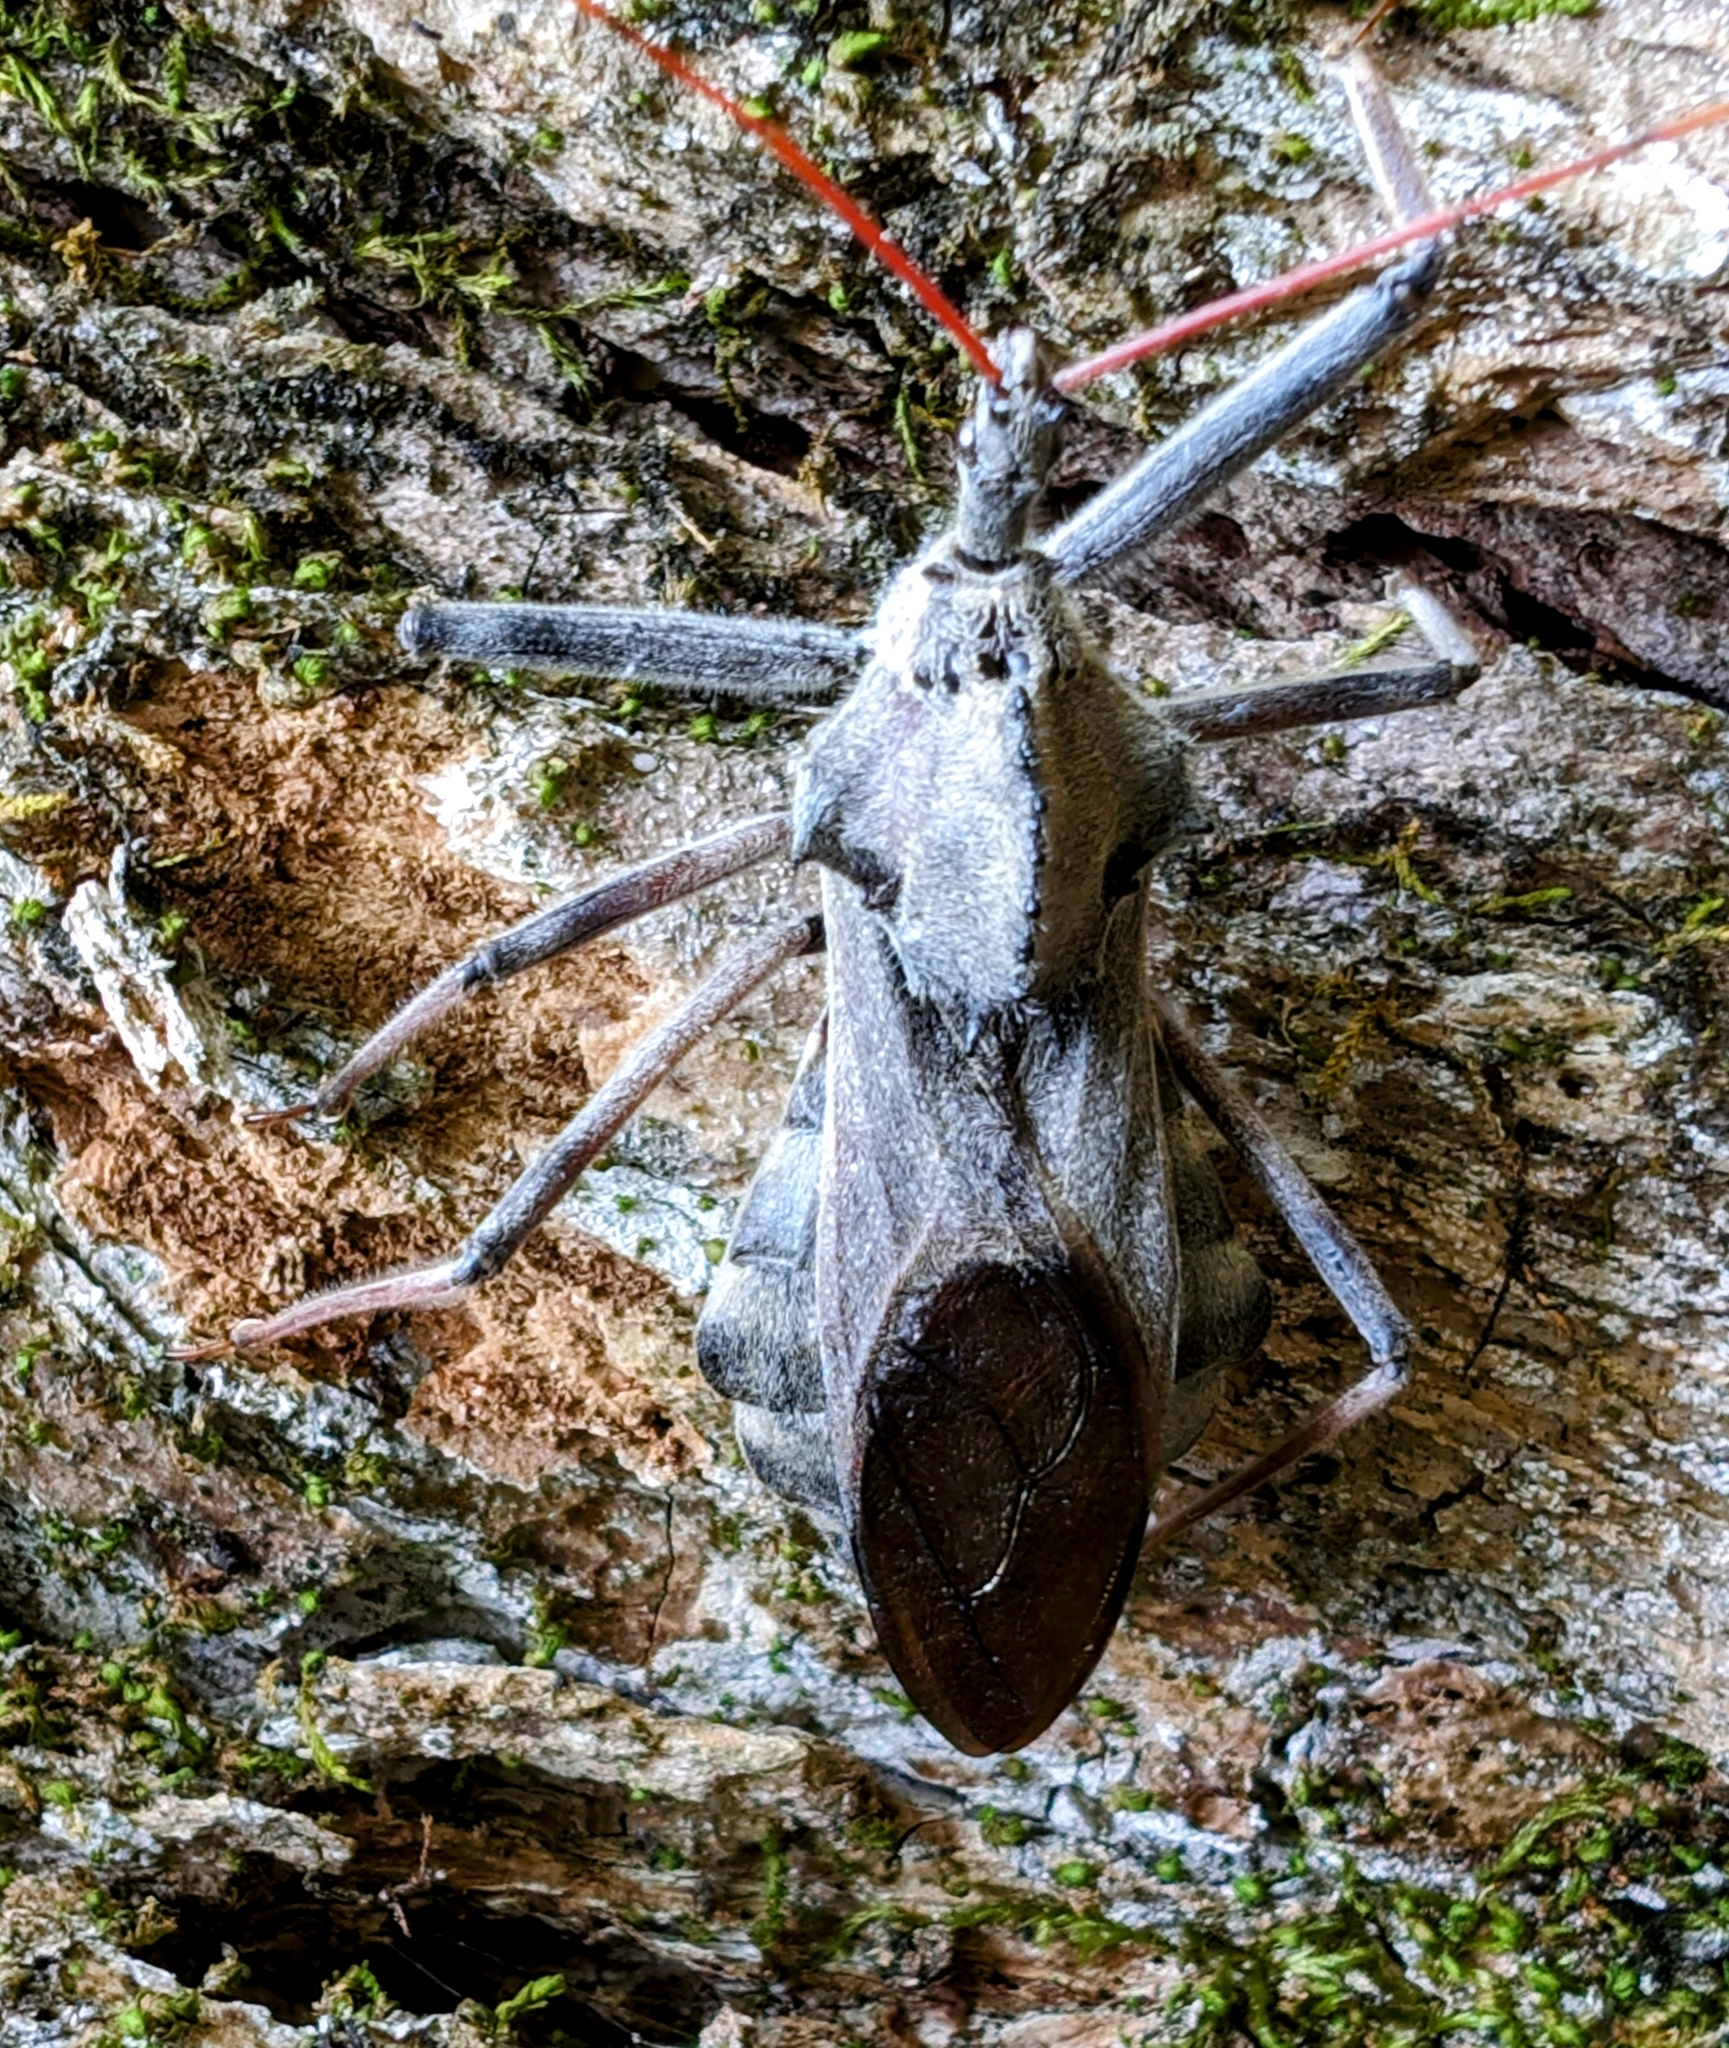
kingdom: Animalia
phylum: Arthropoda
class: Insecta
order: Hemiptera
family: Reduviidae
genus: Arilus
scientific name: Arilus cristatus
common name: North american wheel bug
